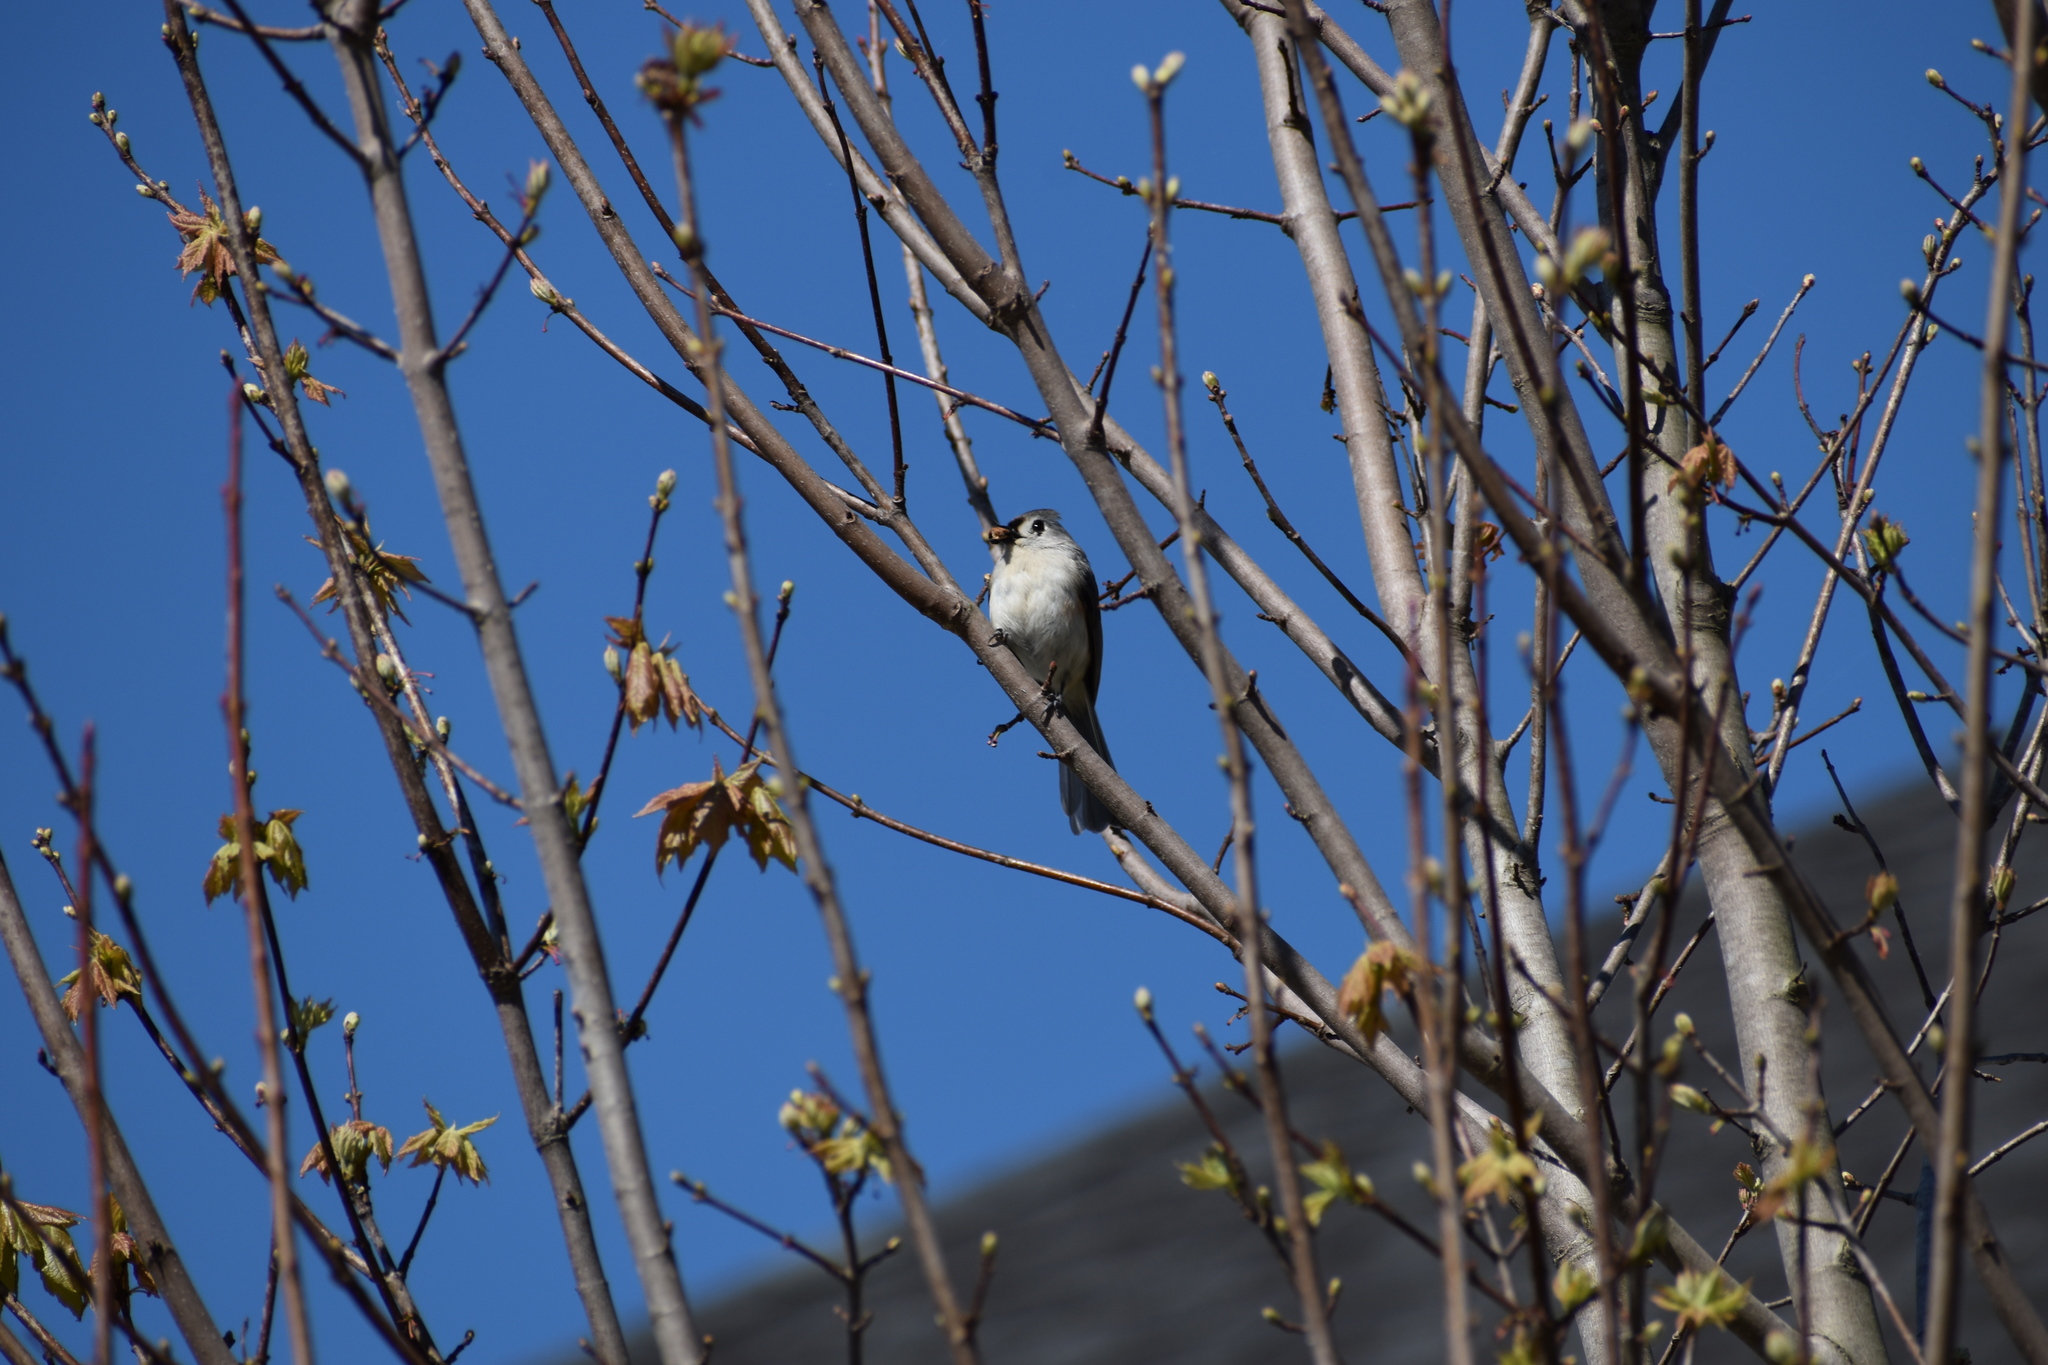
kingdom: Animalia
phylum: Chordata
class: Aves
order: Passeriformes
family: Paridae
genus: Baeolophus
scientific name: Baeolophus bicolor
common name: Tufted titmouse
